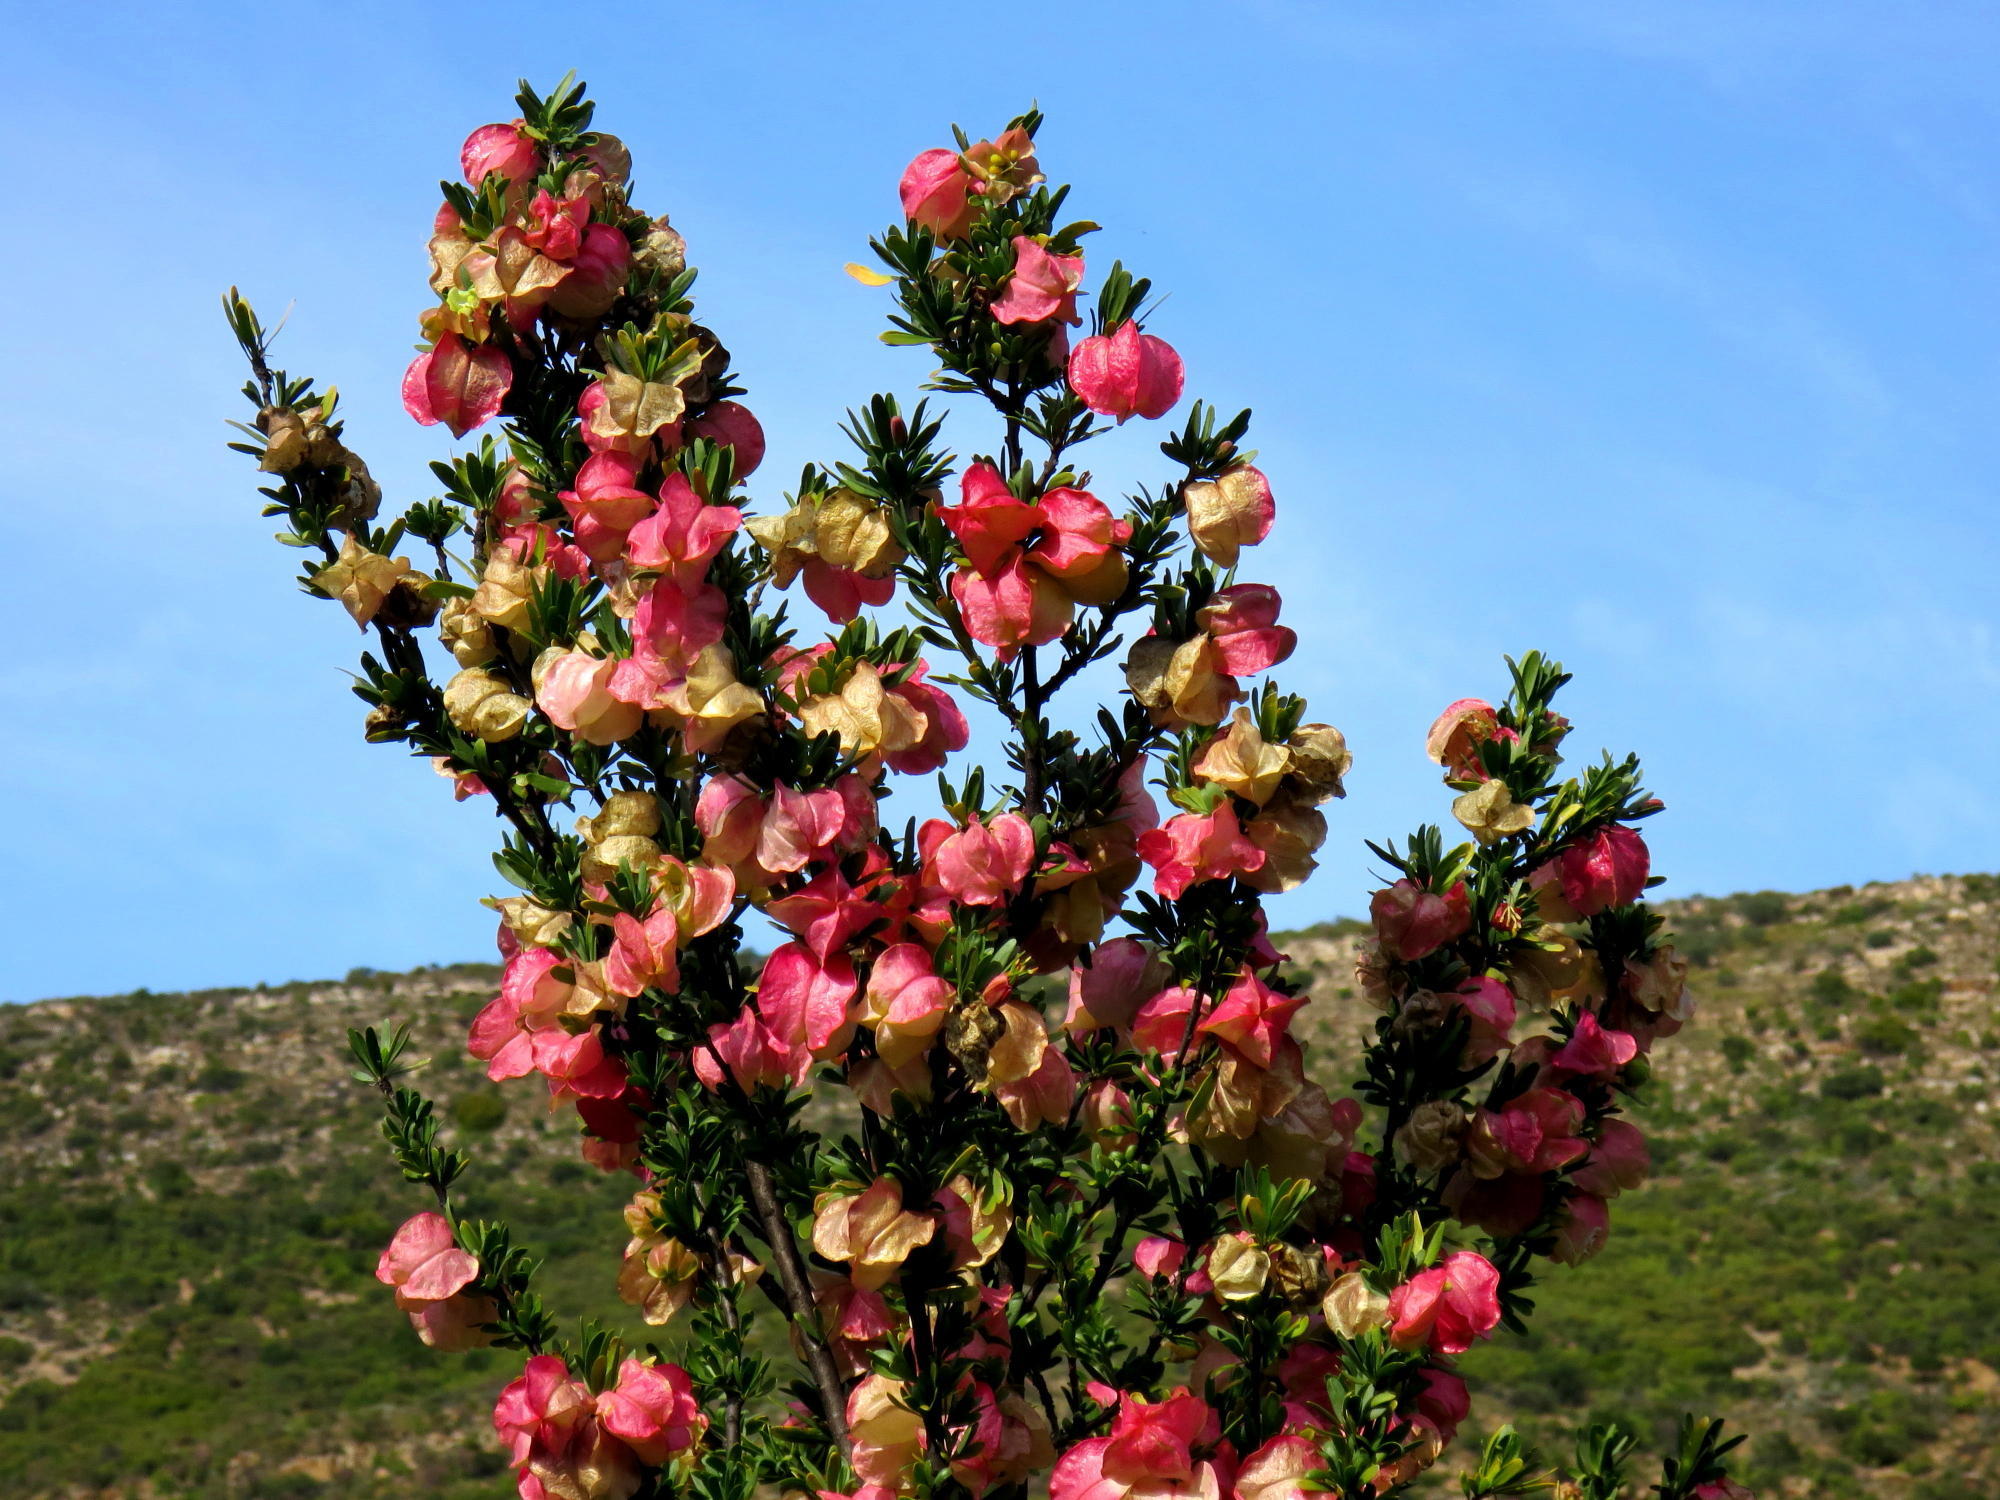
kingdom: Plantae
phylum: Tracheophyta
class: Magnoliopsida
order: Sapindales
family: Meliaceae
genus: Nymania
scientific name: Nymania capensis
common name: Chinese lantern tree
